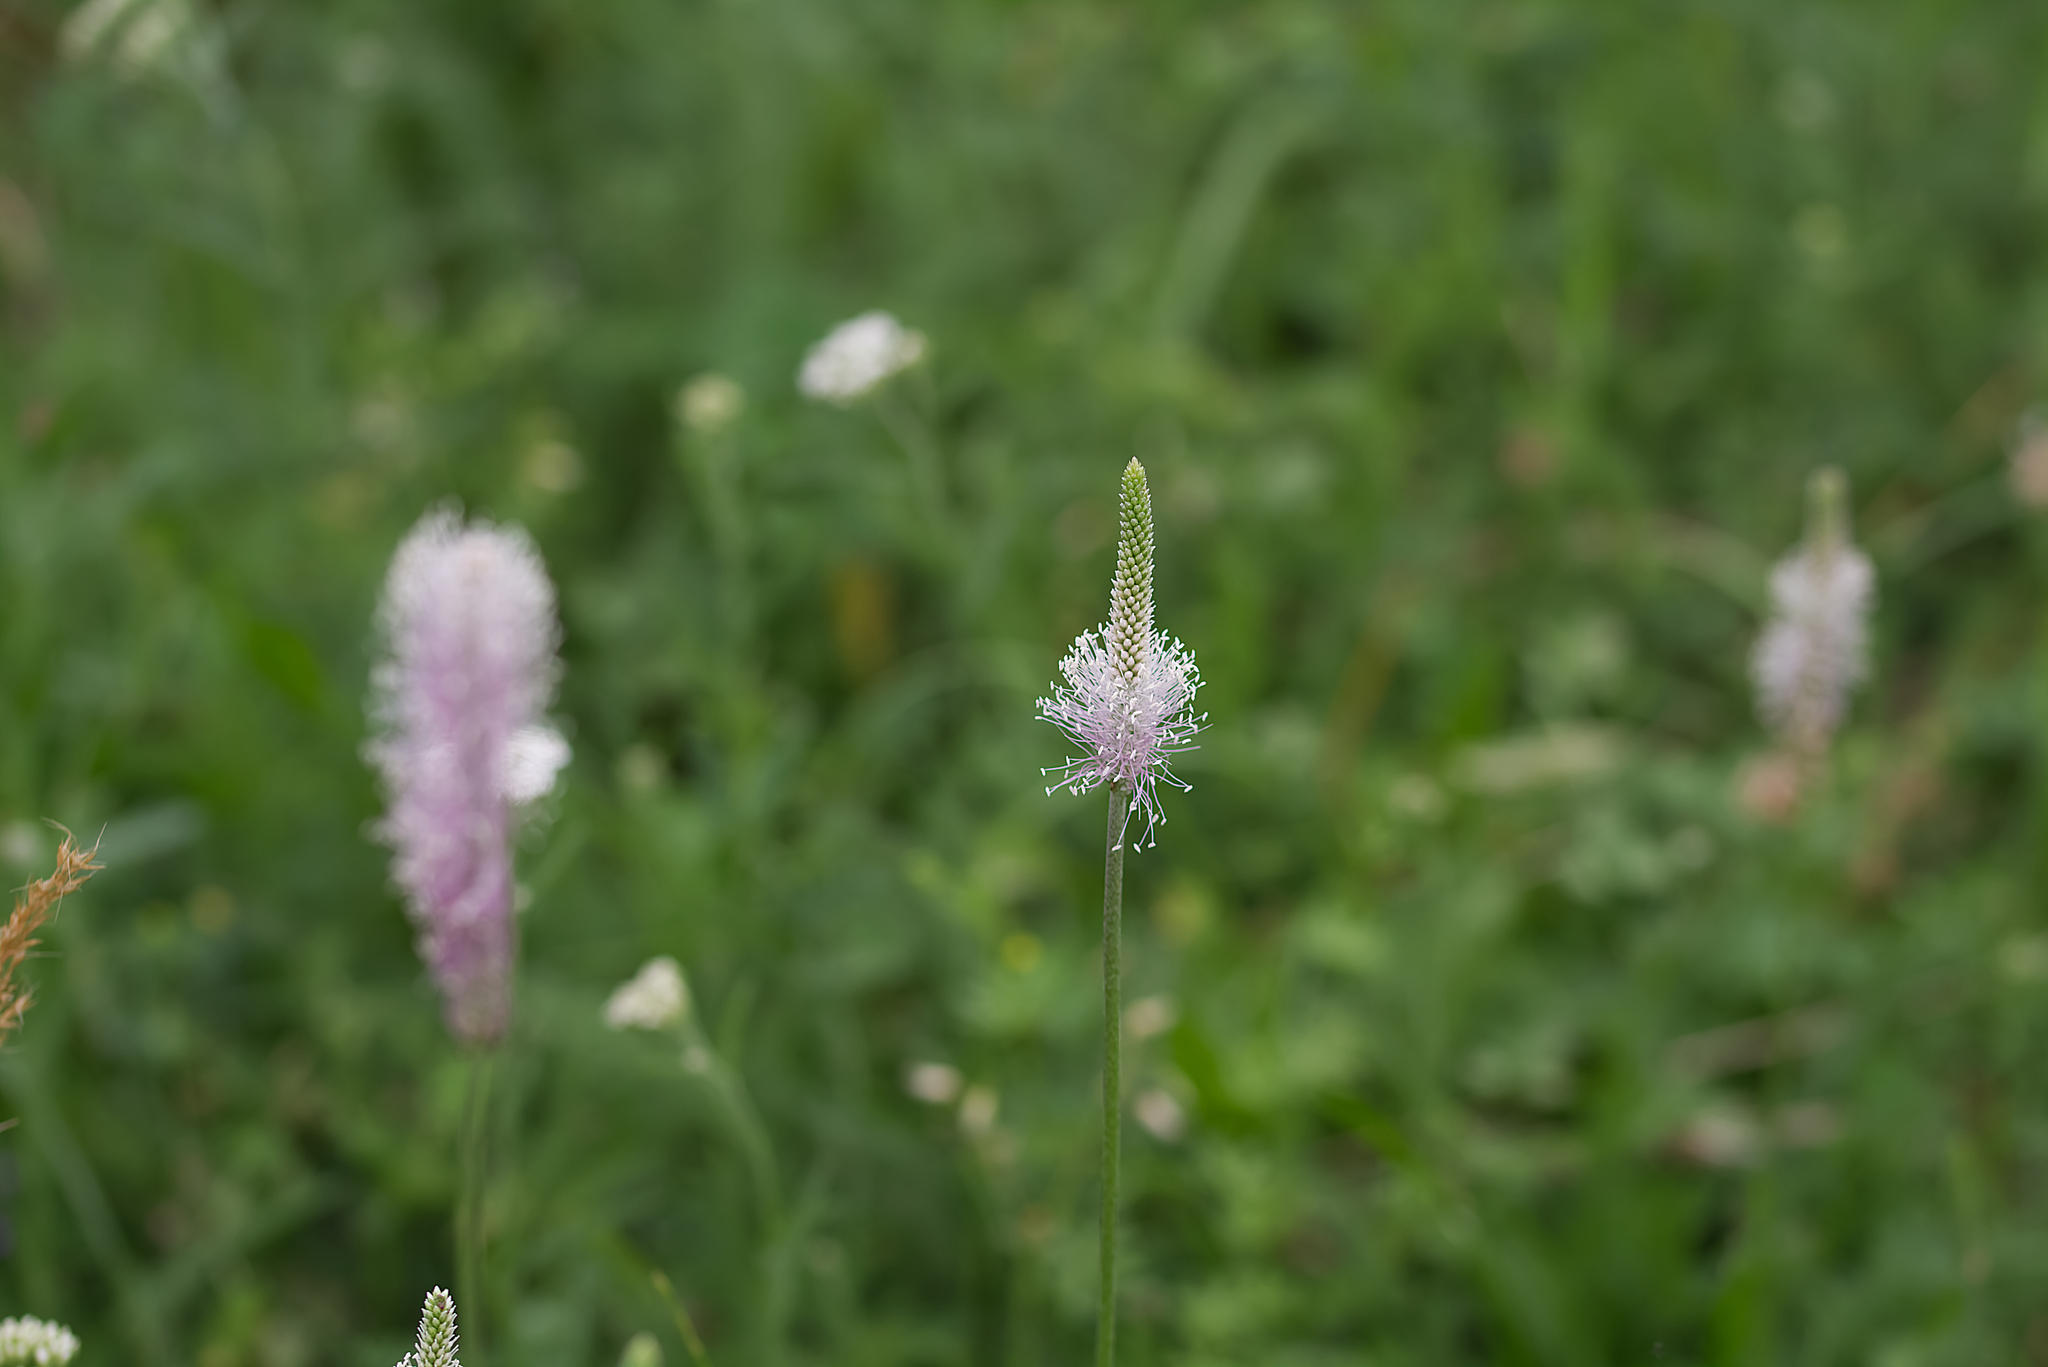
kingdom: Plantae
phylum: Tracheophyta
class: Magnoliopsida
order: Lamiales
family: Plantaginaceae
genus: Plantago
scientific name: Plantago media
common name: Hoary plantain
